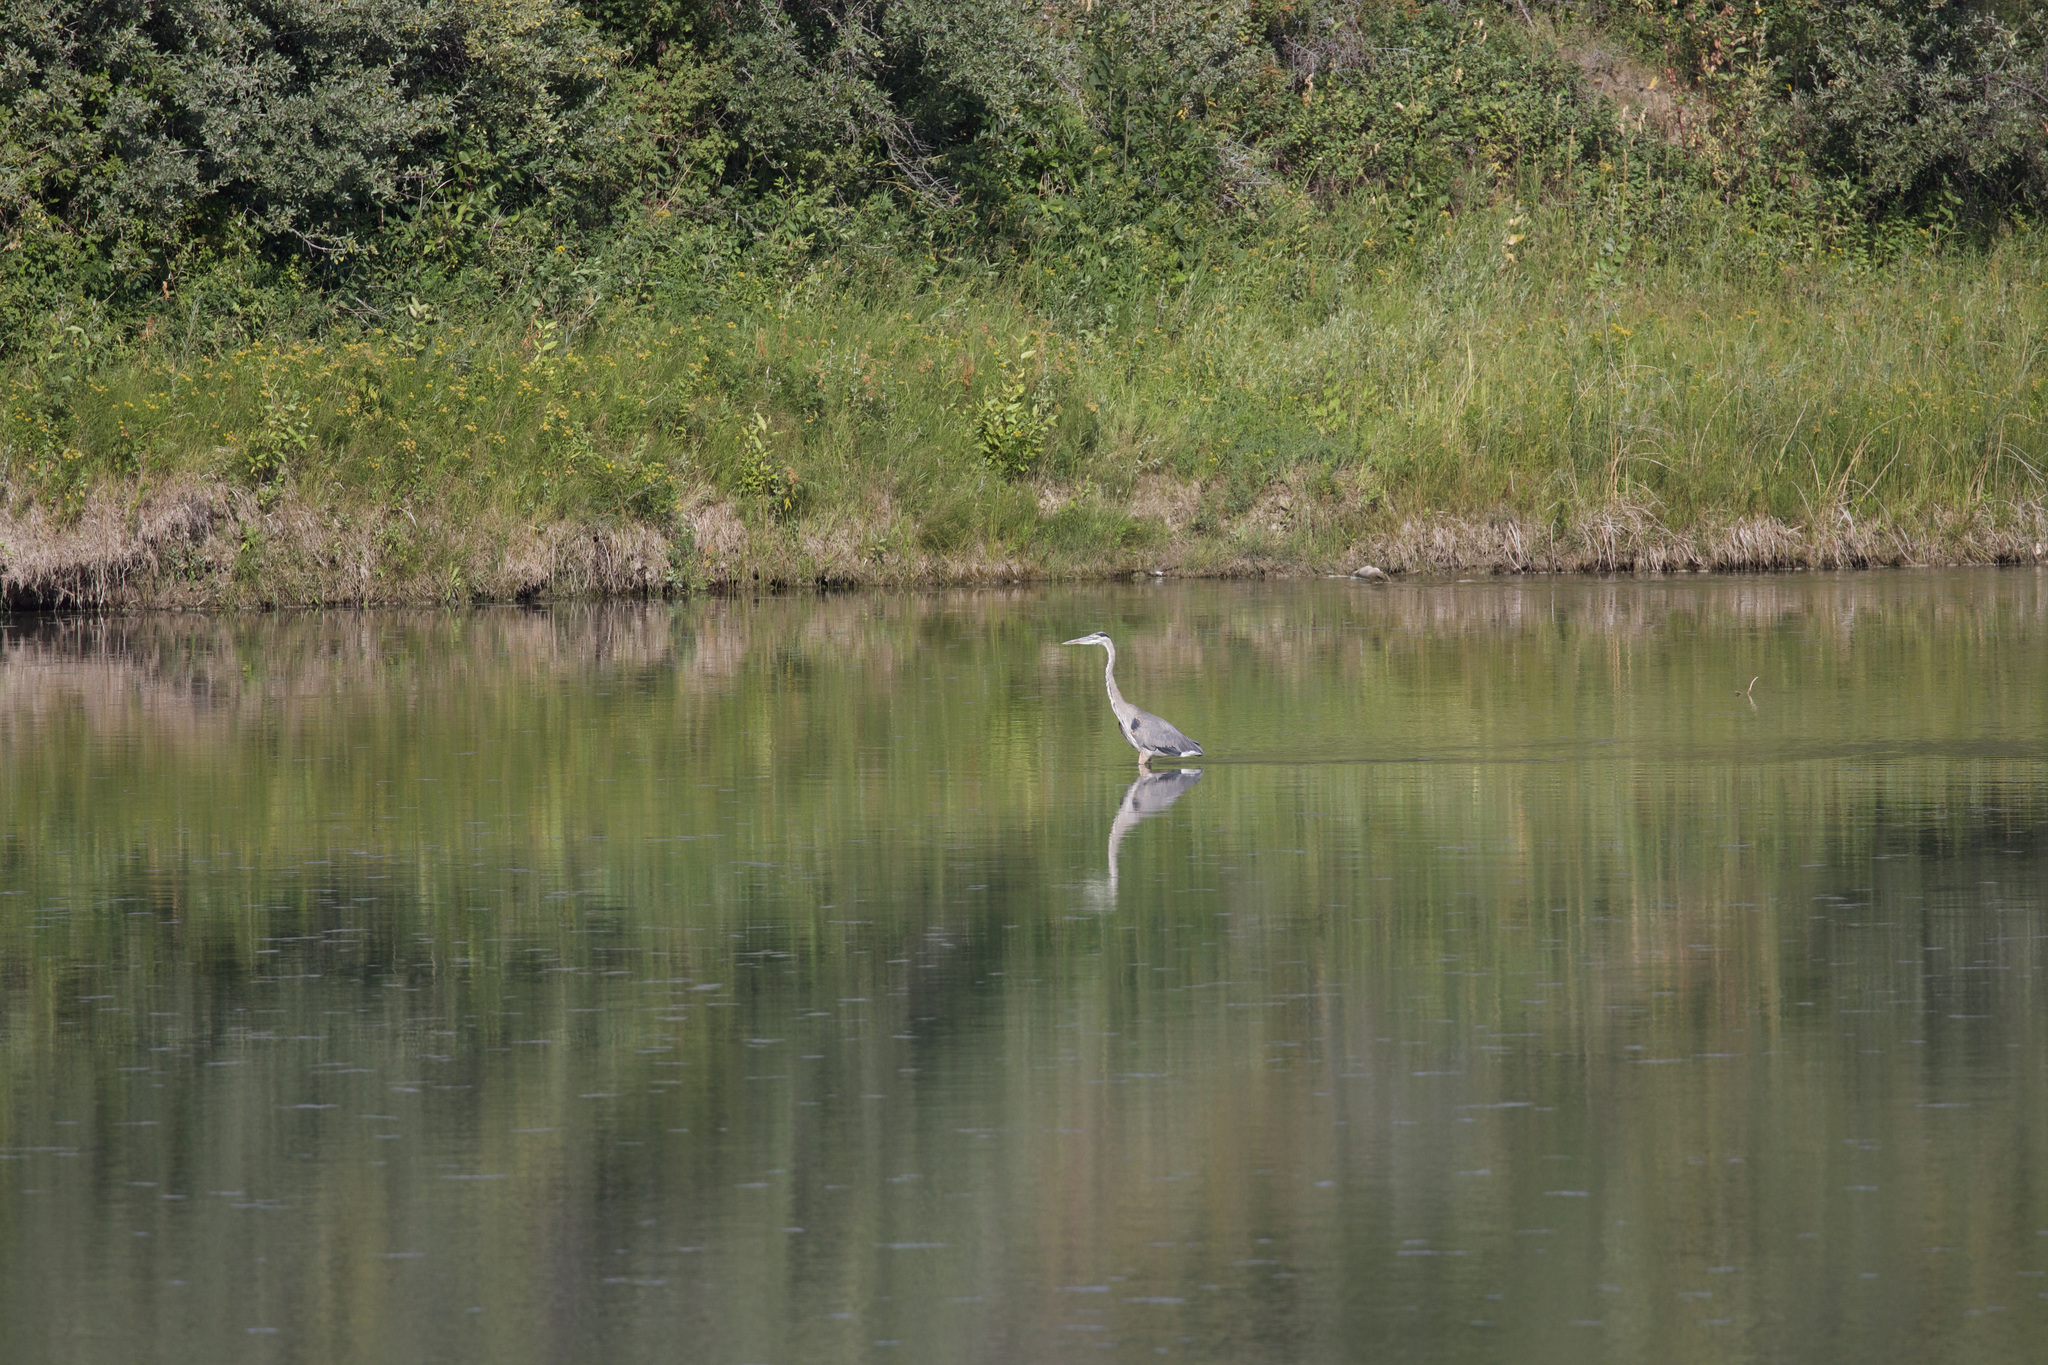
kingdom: Animalia
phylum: Chordata
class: Aves
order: Pelecaniformes
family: Ardeidae
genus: Ardea
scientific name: Ardea herodias
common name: Great blue heron
